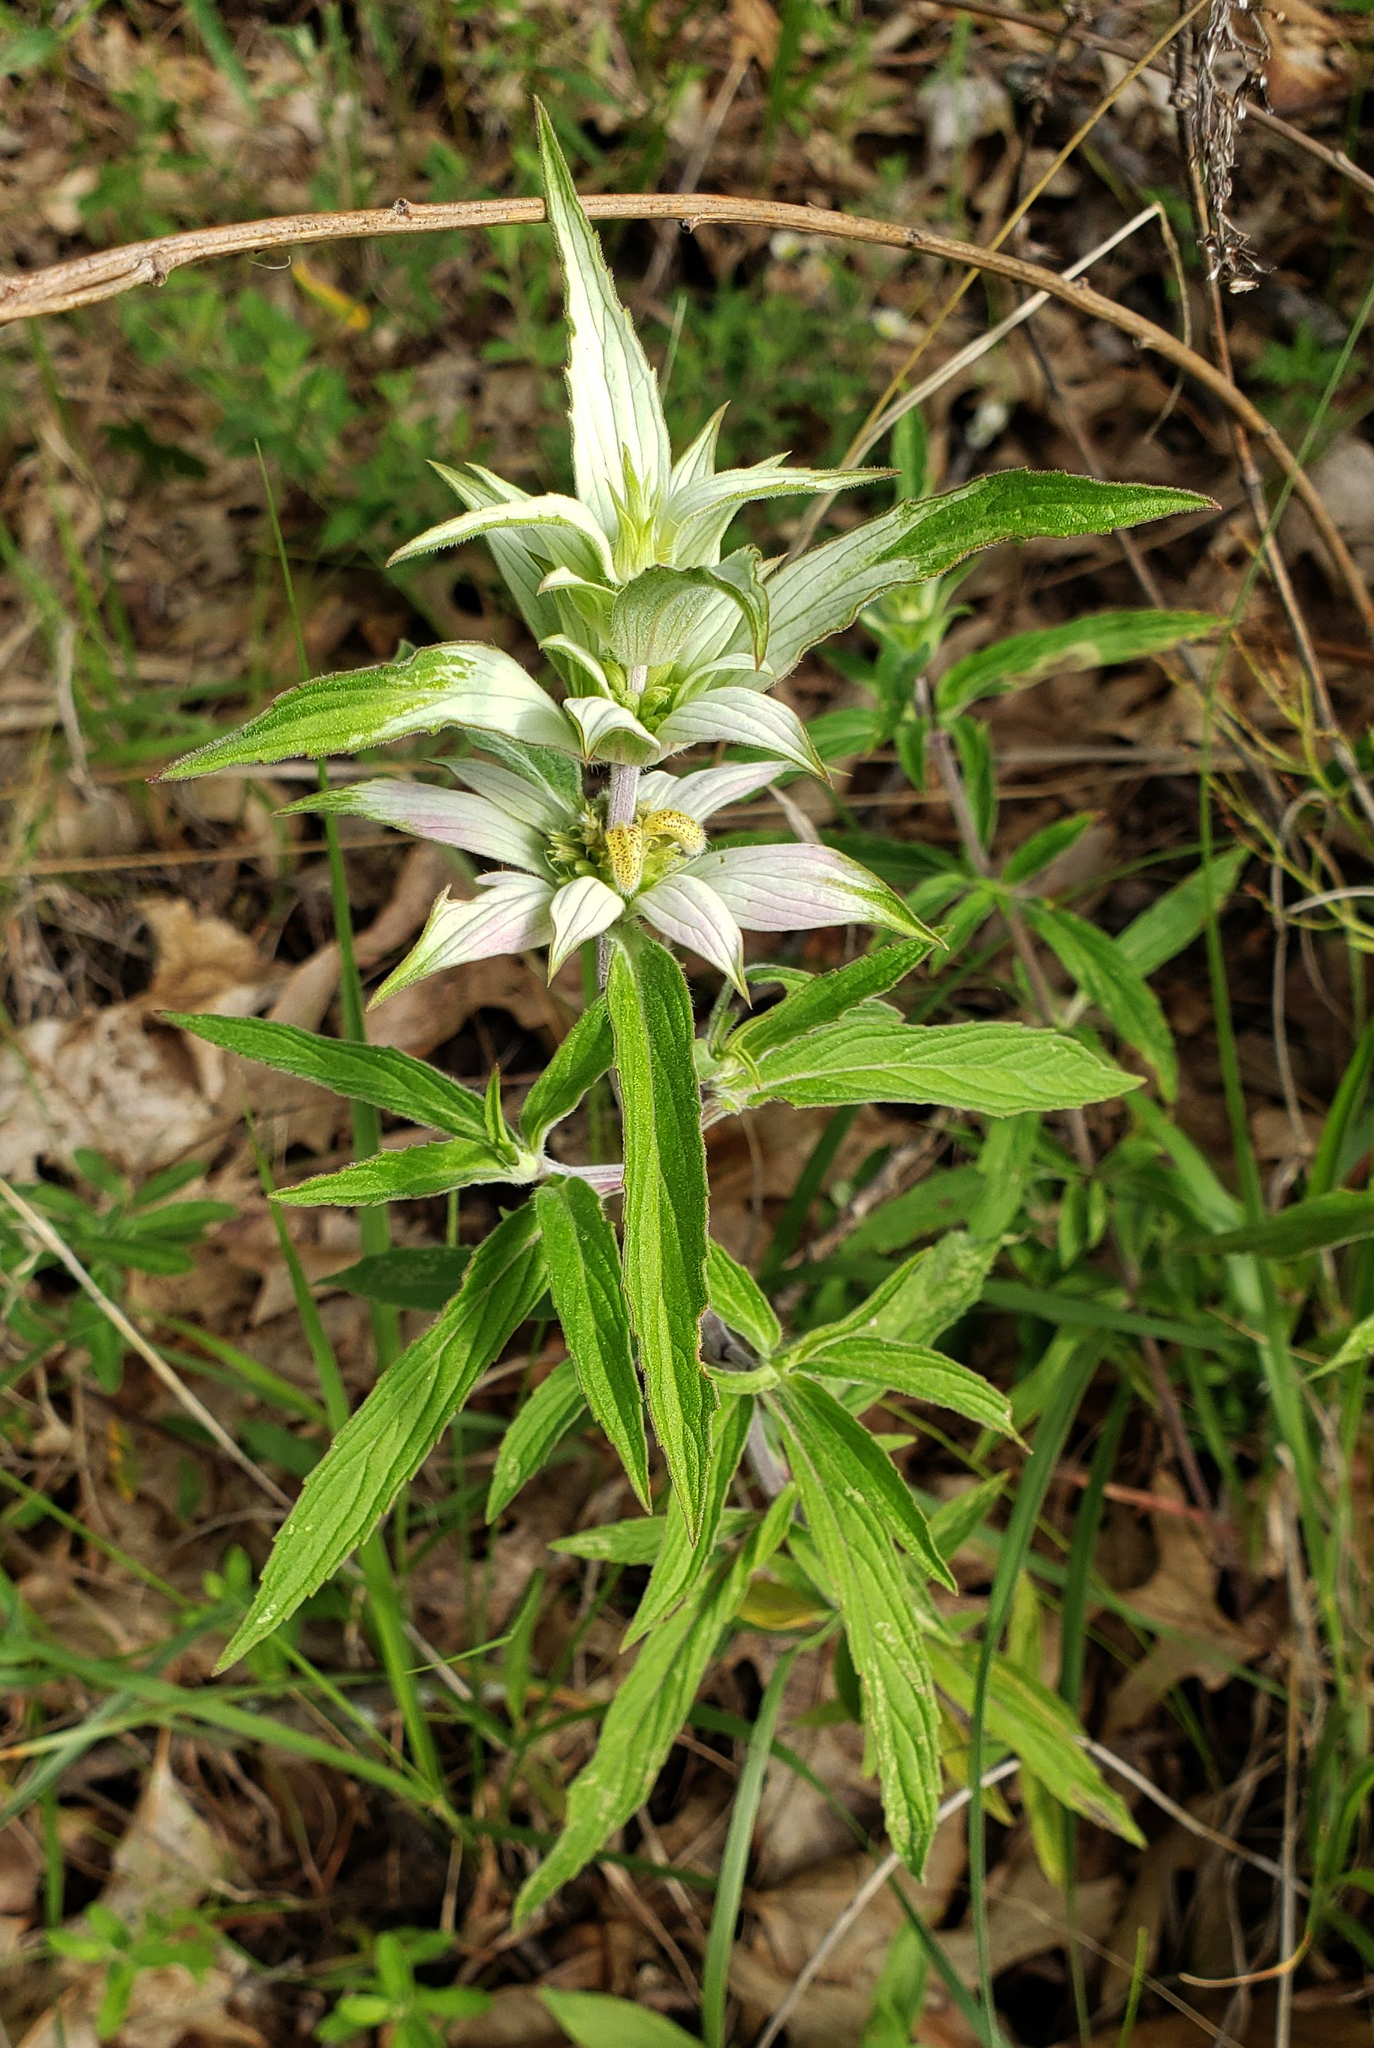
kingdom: Plantae
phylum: Tracheophyta
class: Magnoliopsida
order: Lamiales
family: Lamiaceae
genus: Monarda
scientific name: Monarda punctata
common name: Dotted monarda
